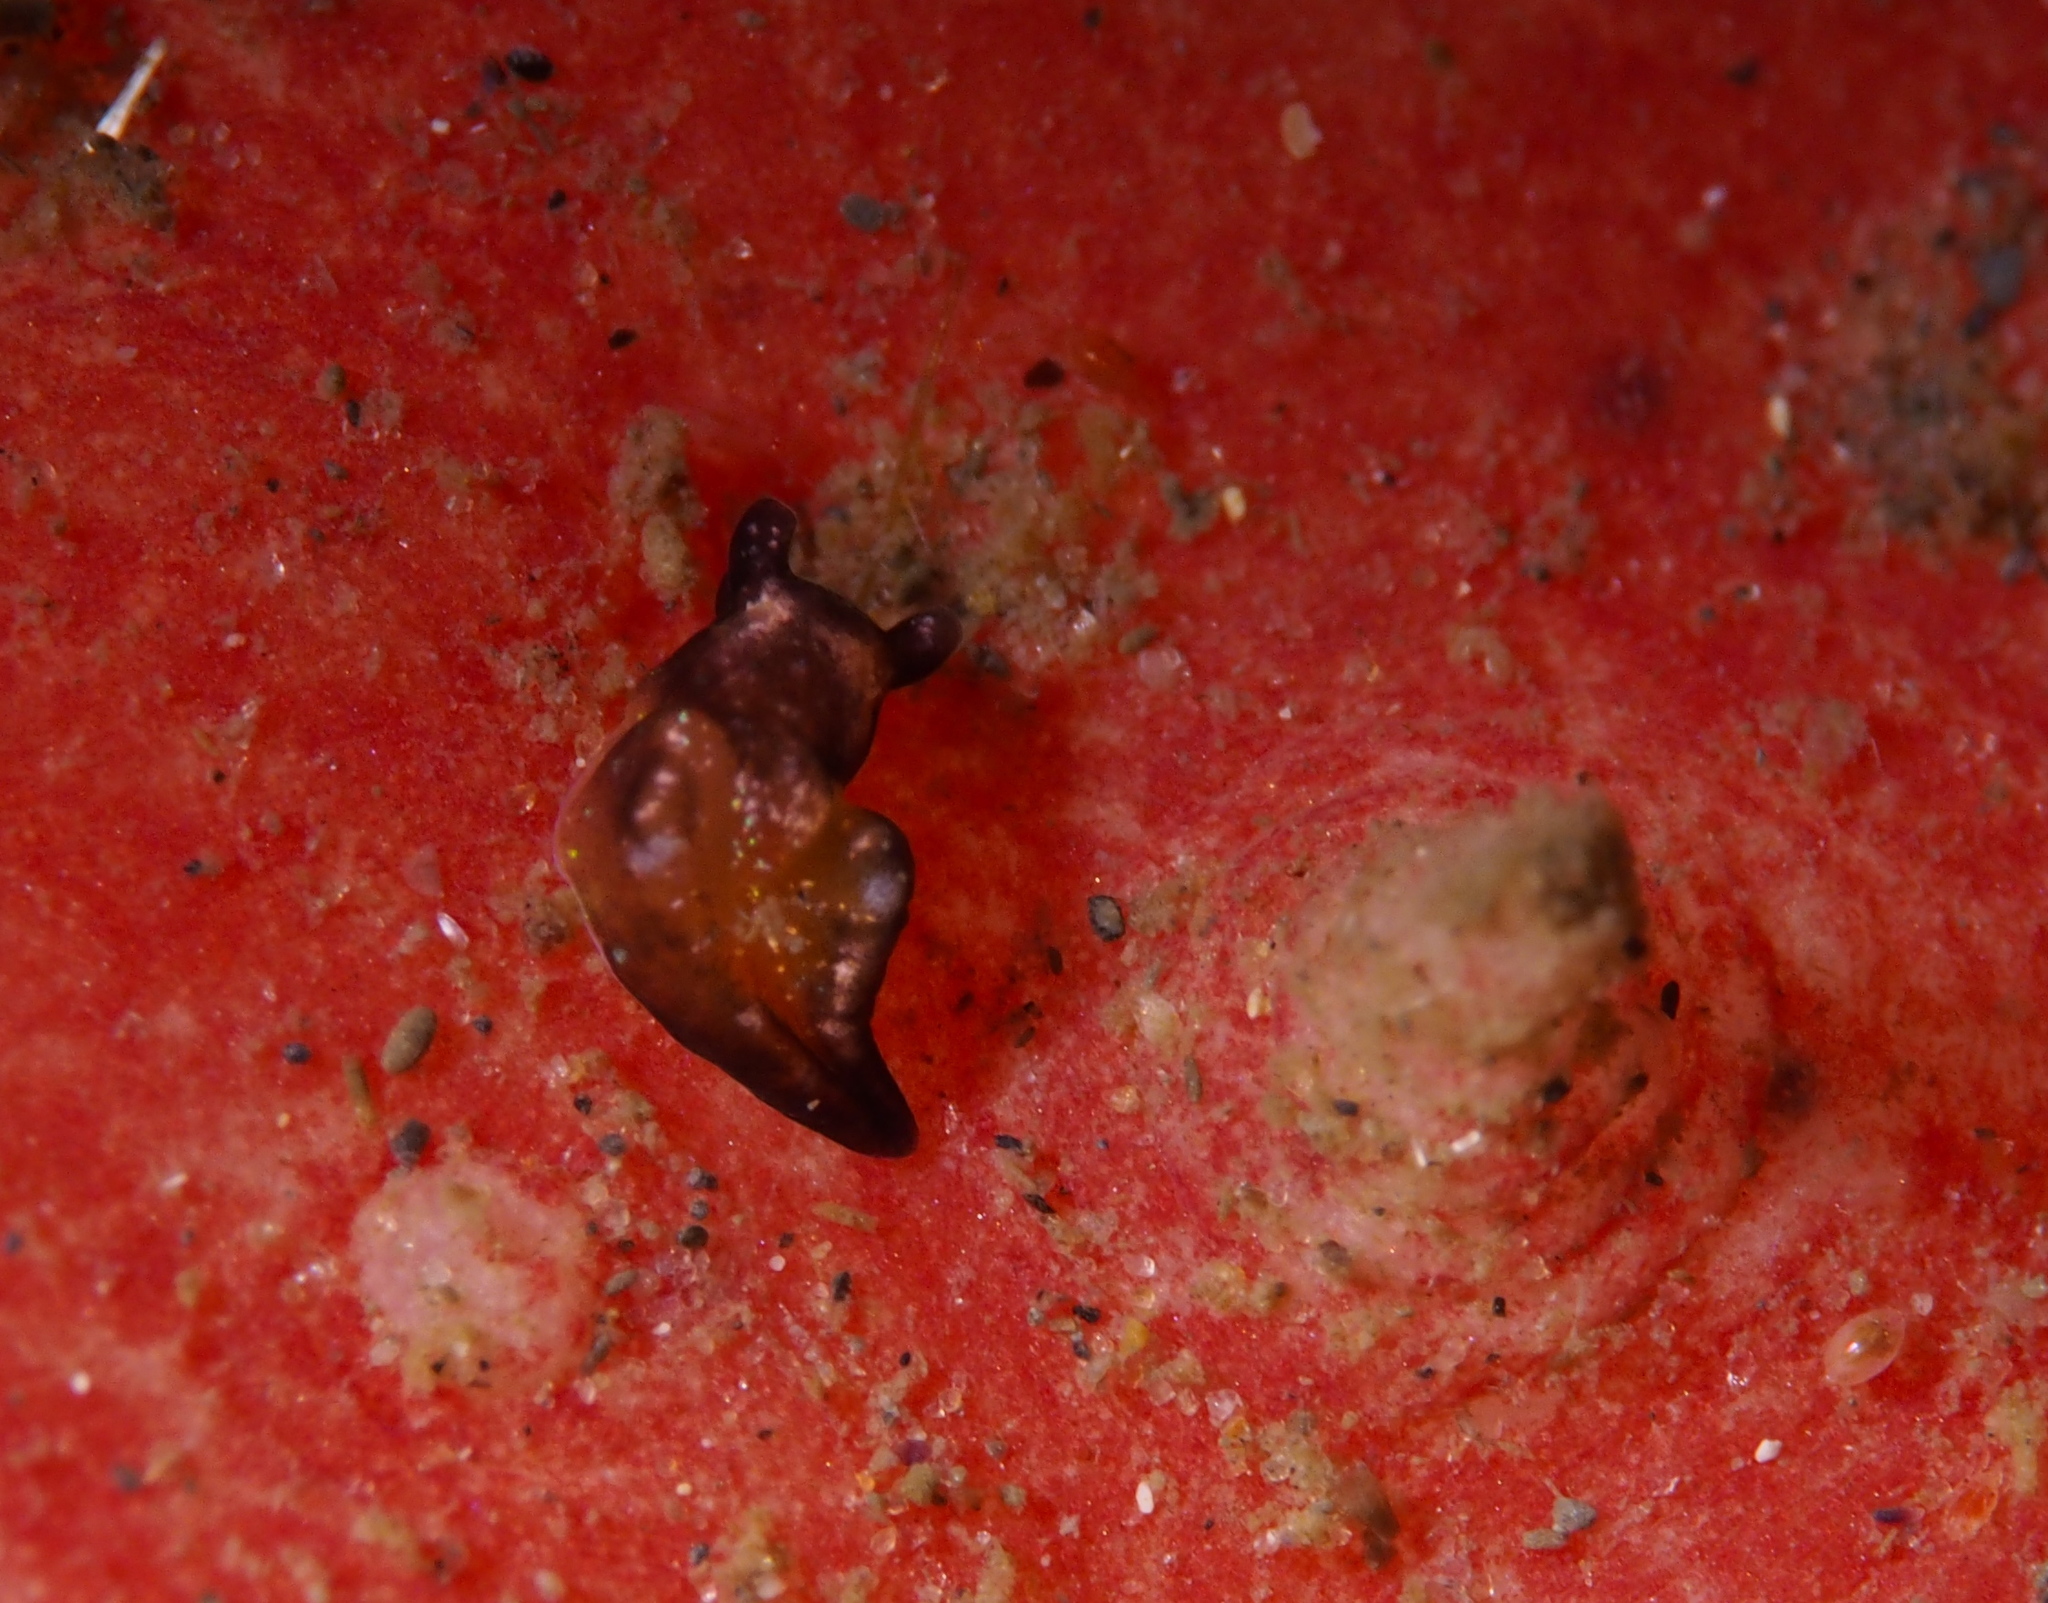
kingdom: Animalia
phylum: Mollusca
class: Gastropoda
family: Plakobranchidae
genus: Elysia
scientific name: Elysia viridis
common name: Green elysia
